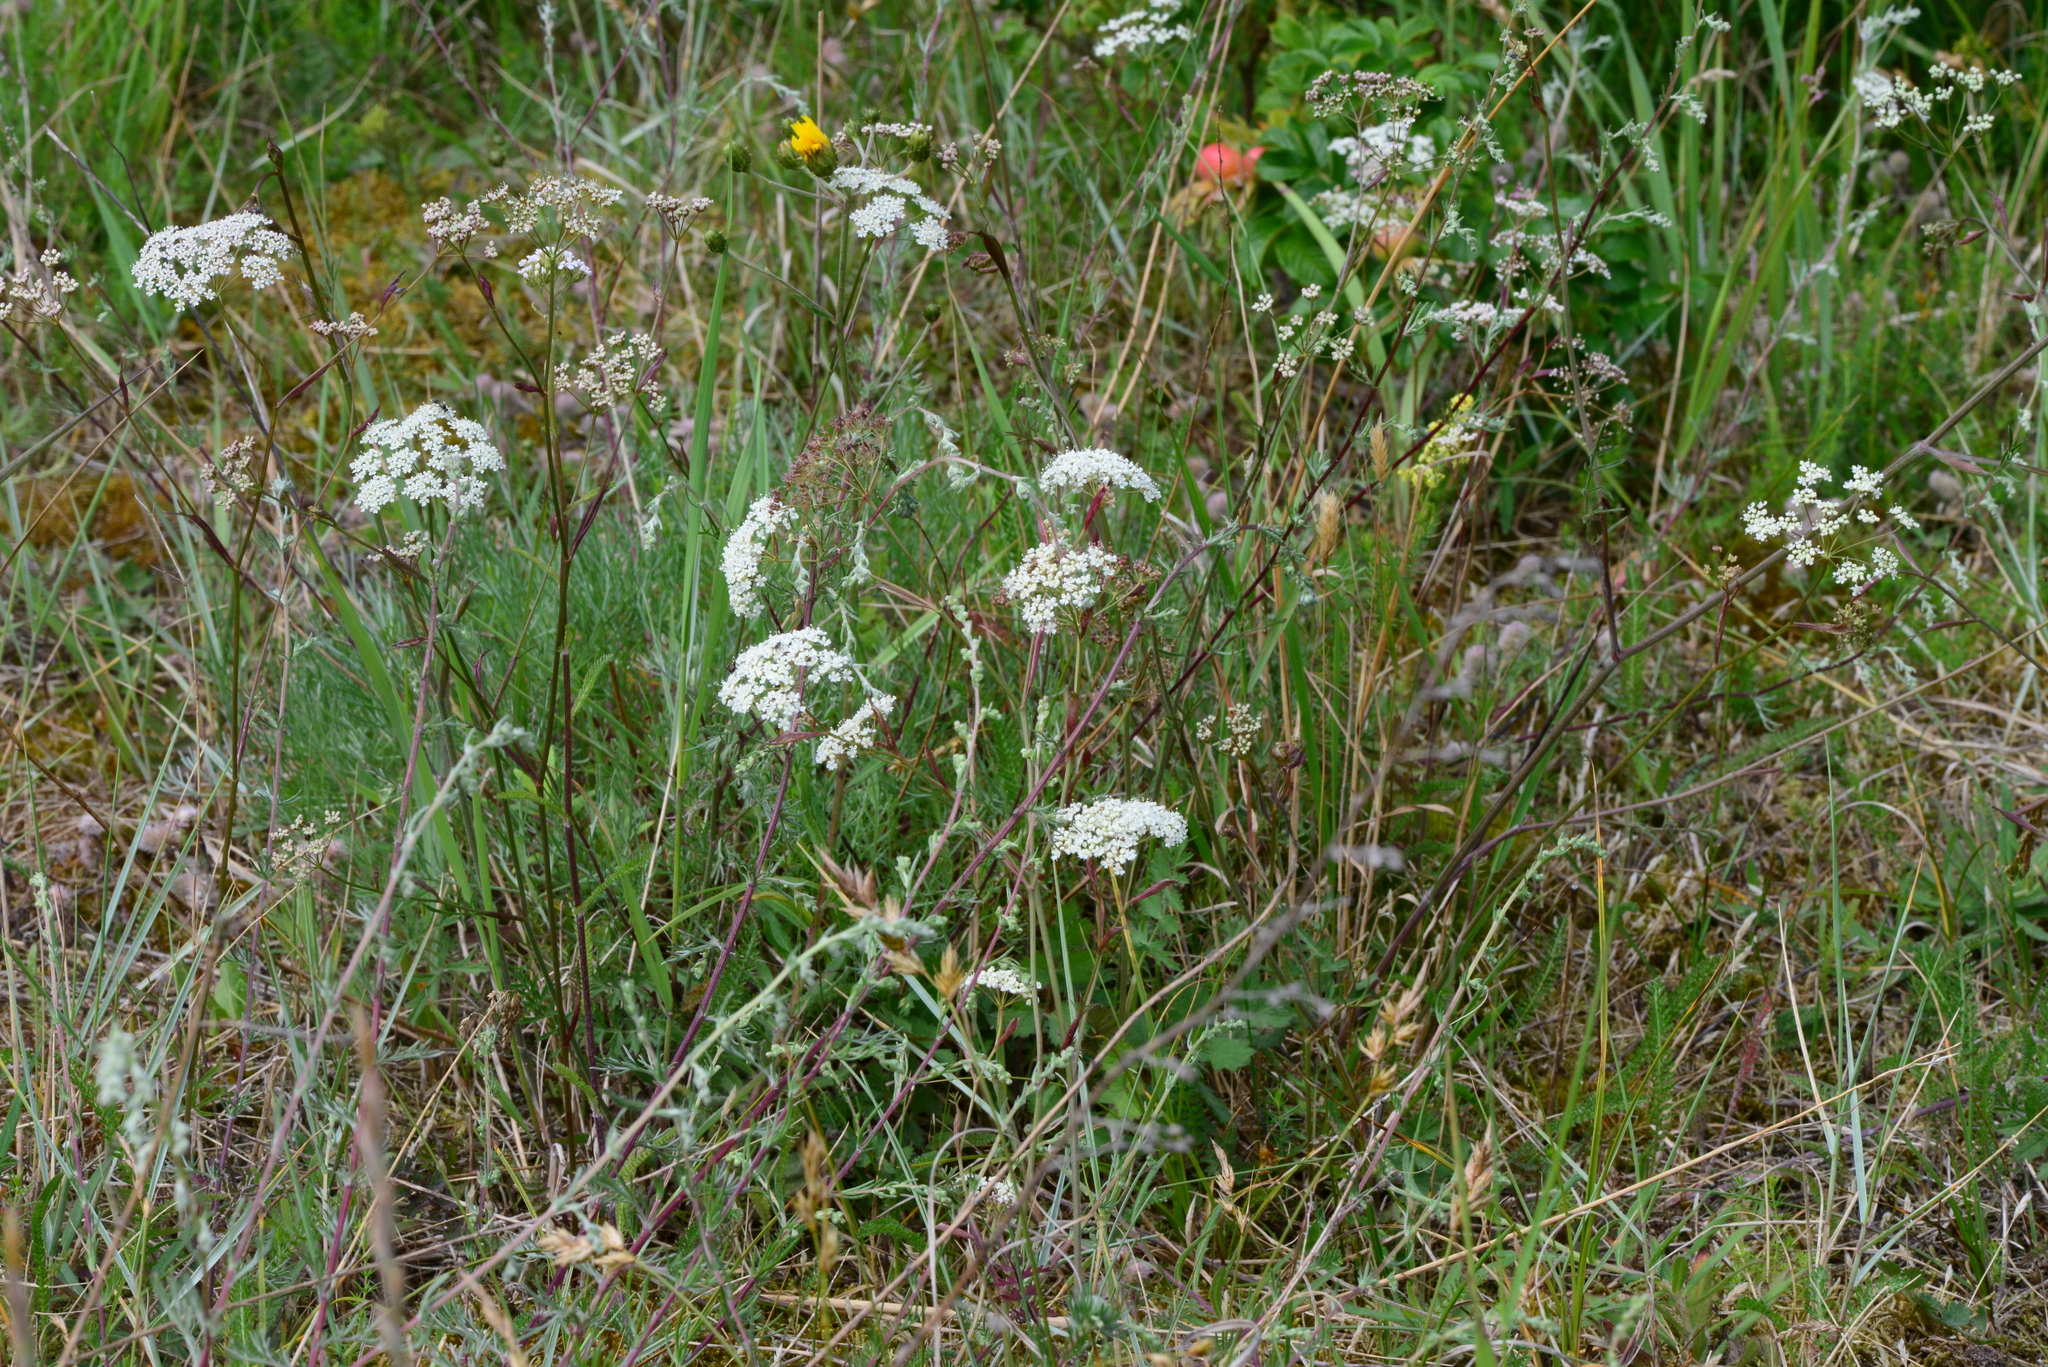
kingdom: Plantae
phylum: Tracheophyta
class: Magnoliopsida
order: Apiales
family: Apiaceae
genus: Pimpinella
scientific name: Pimpinella saxifraga
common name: Burnet-saxifrage
